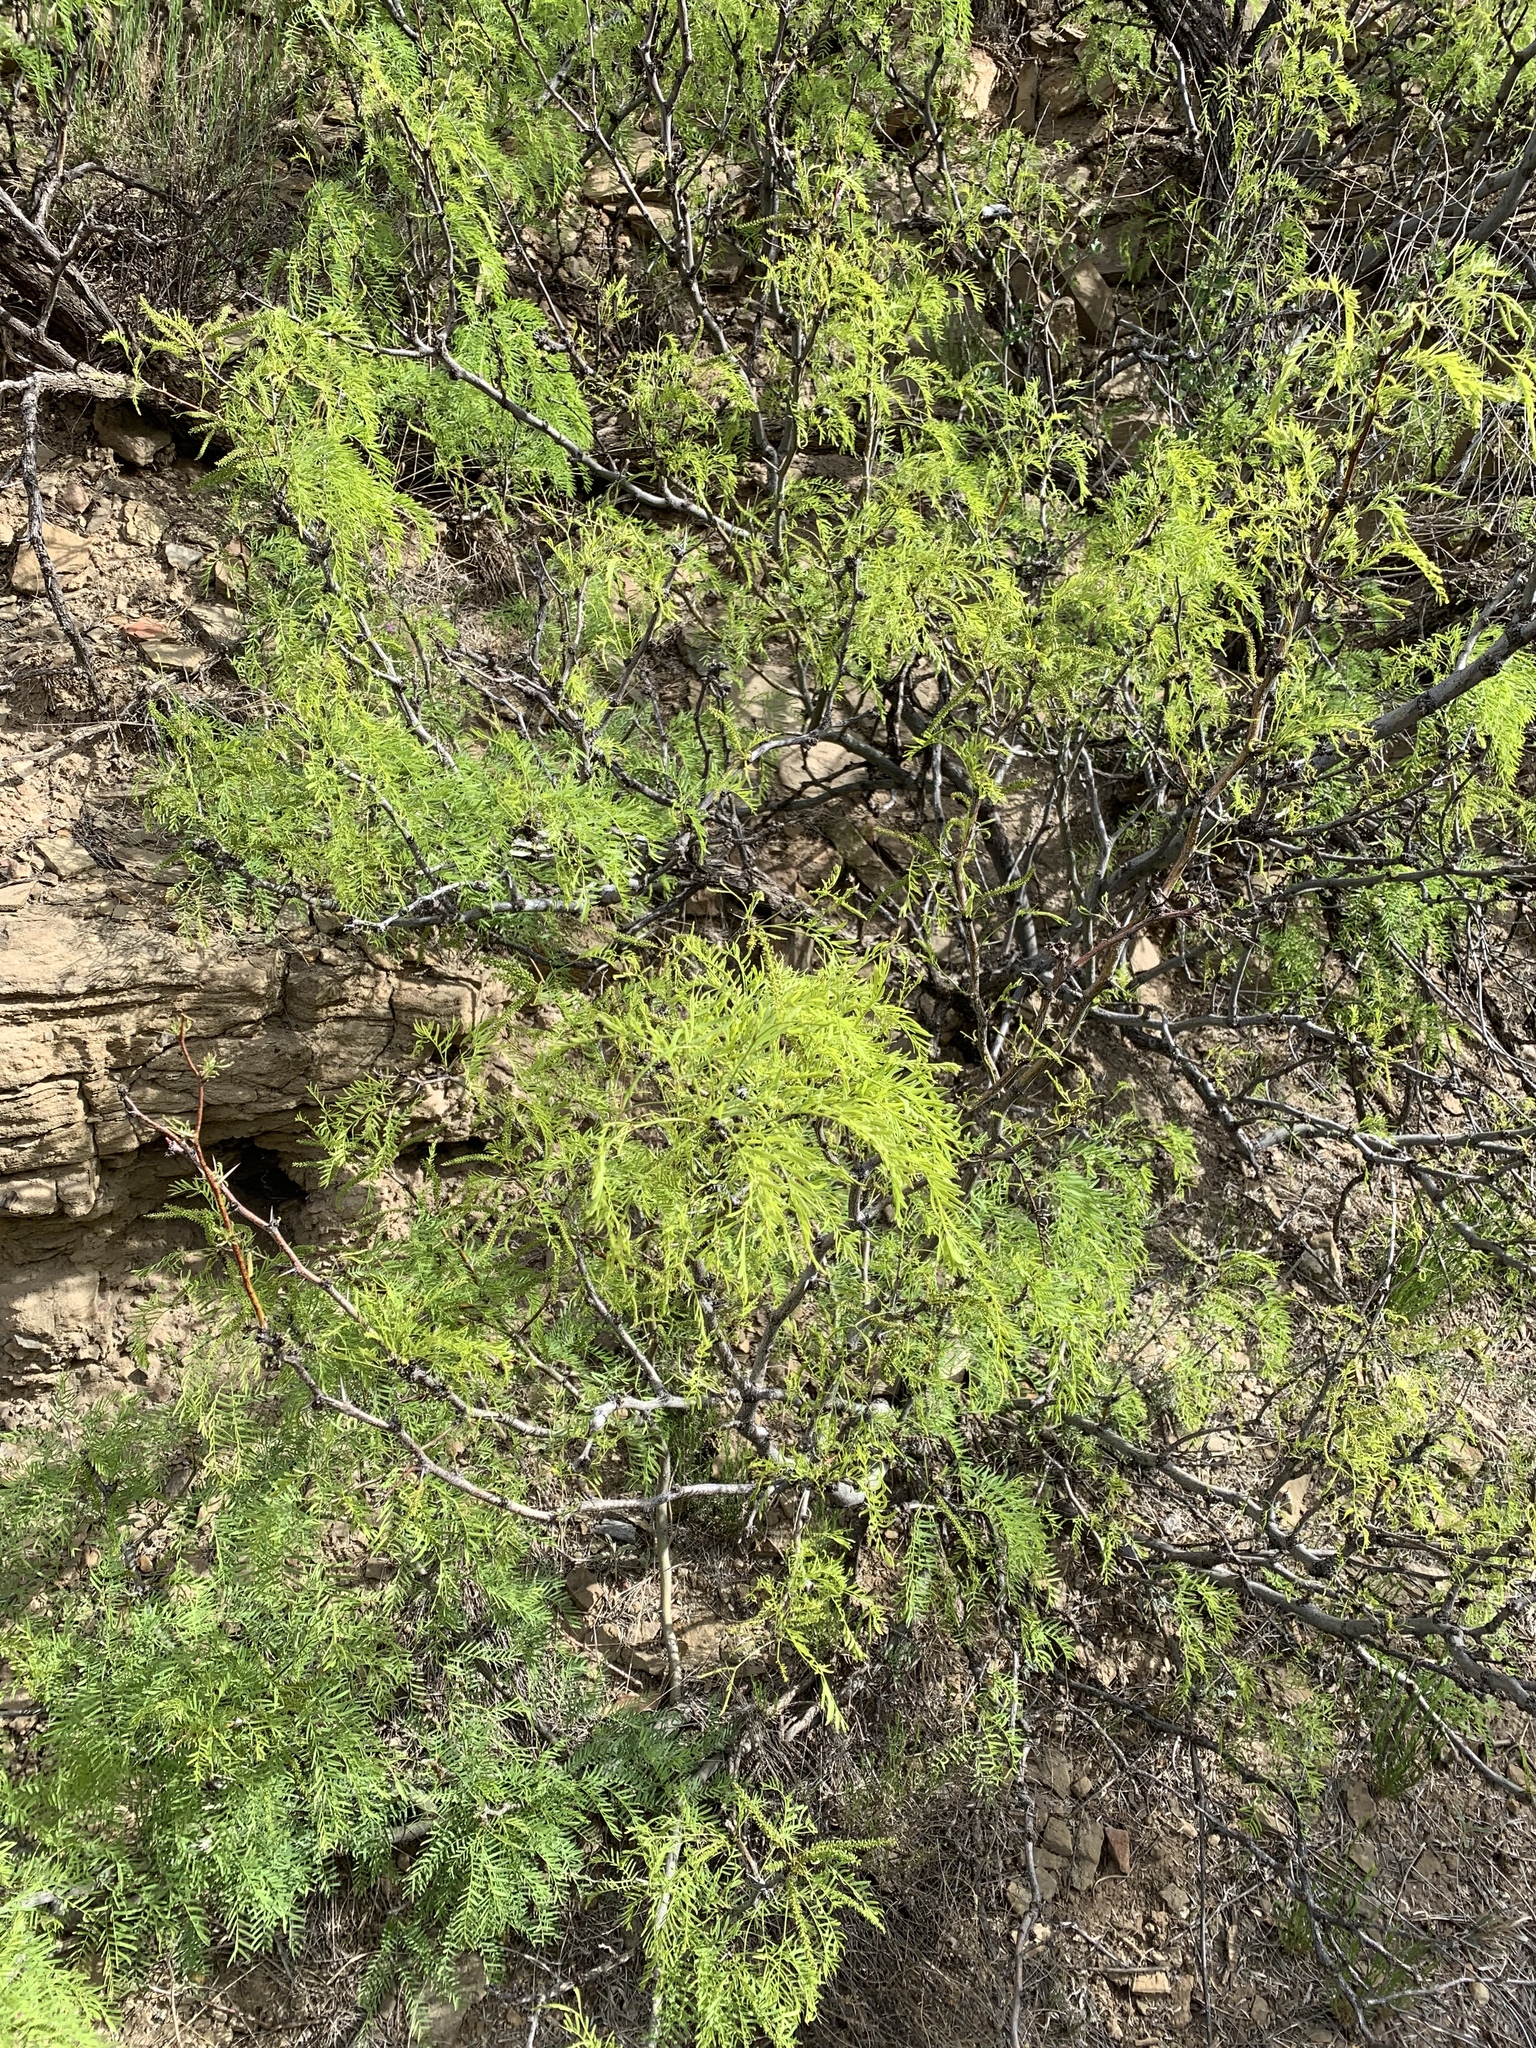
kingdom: Plantae
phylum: Tracheophyta
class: Magnoliopsida
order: Fabales
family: Fabaceae
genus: Prosopis
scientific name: Prosopis glandulosa
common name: Honey mesquite
